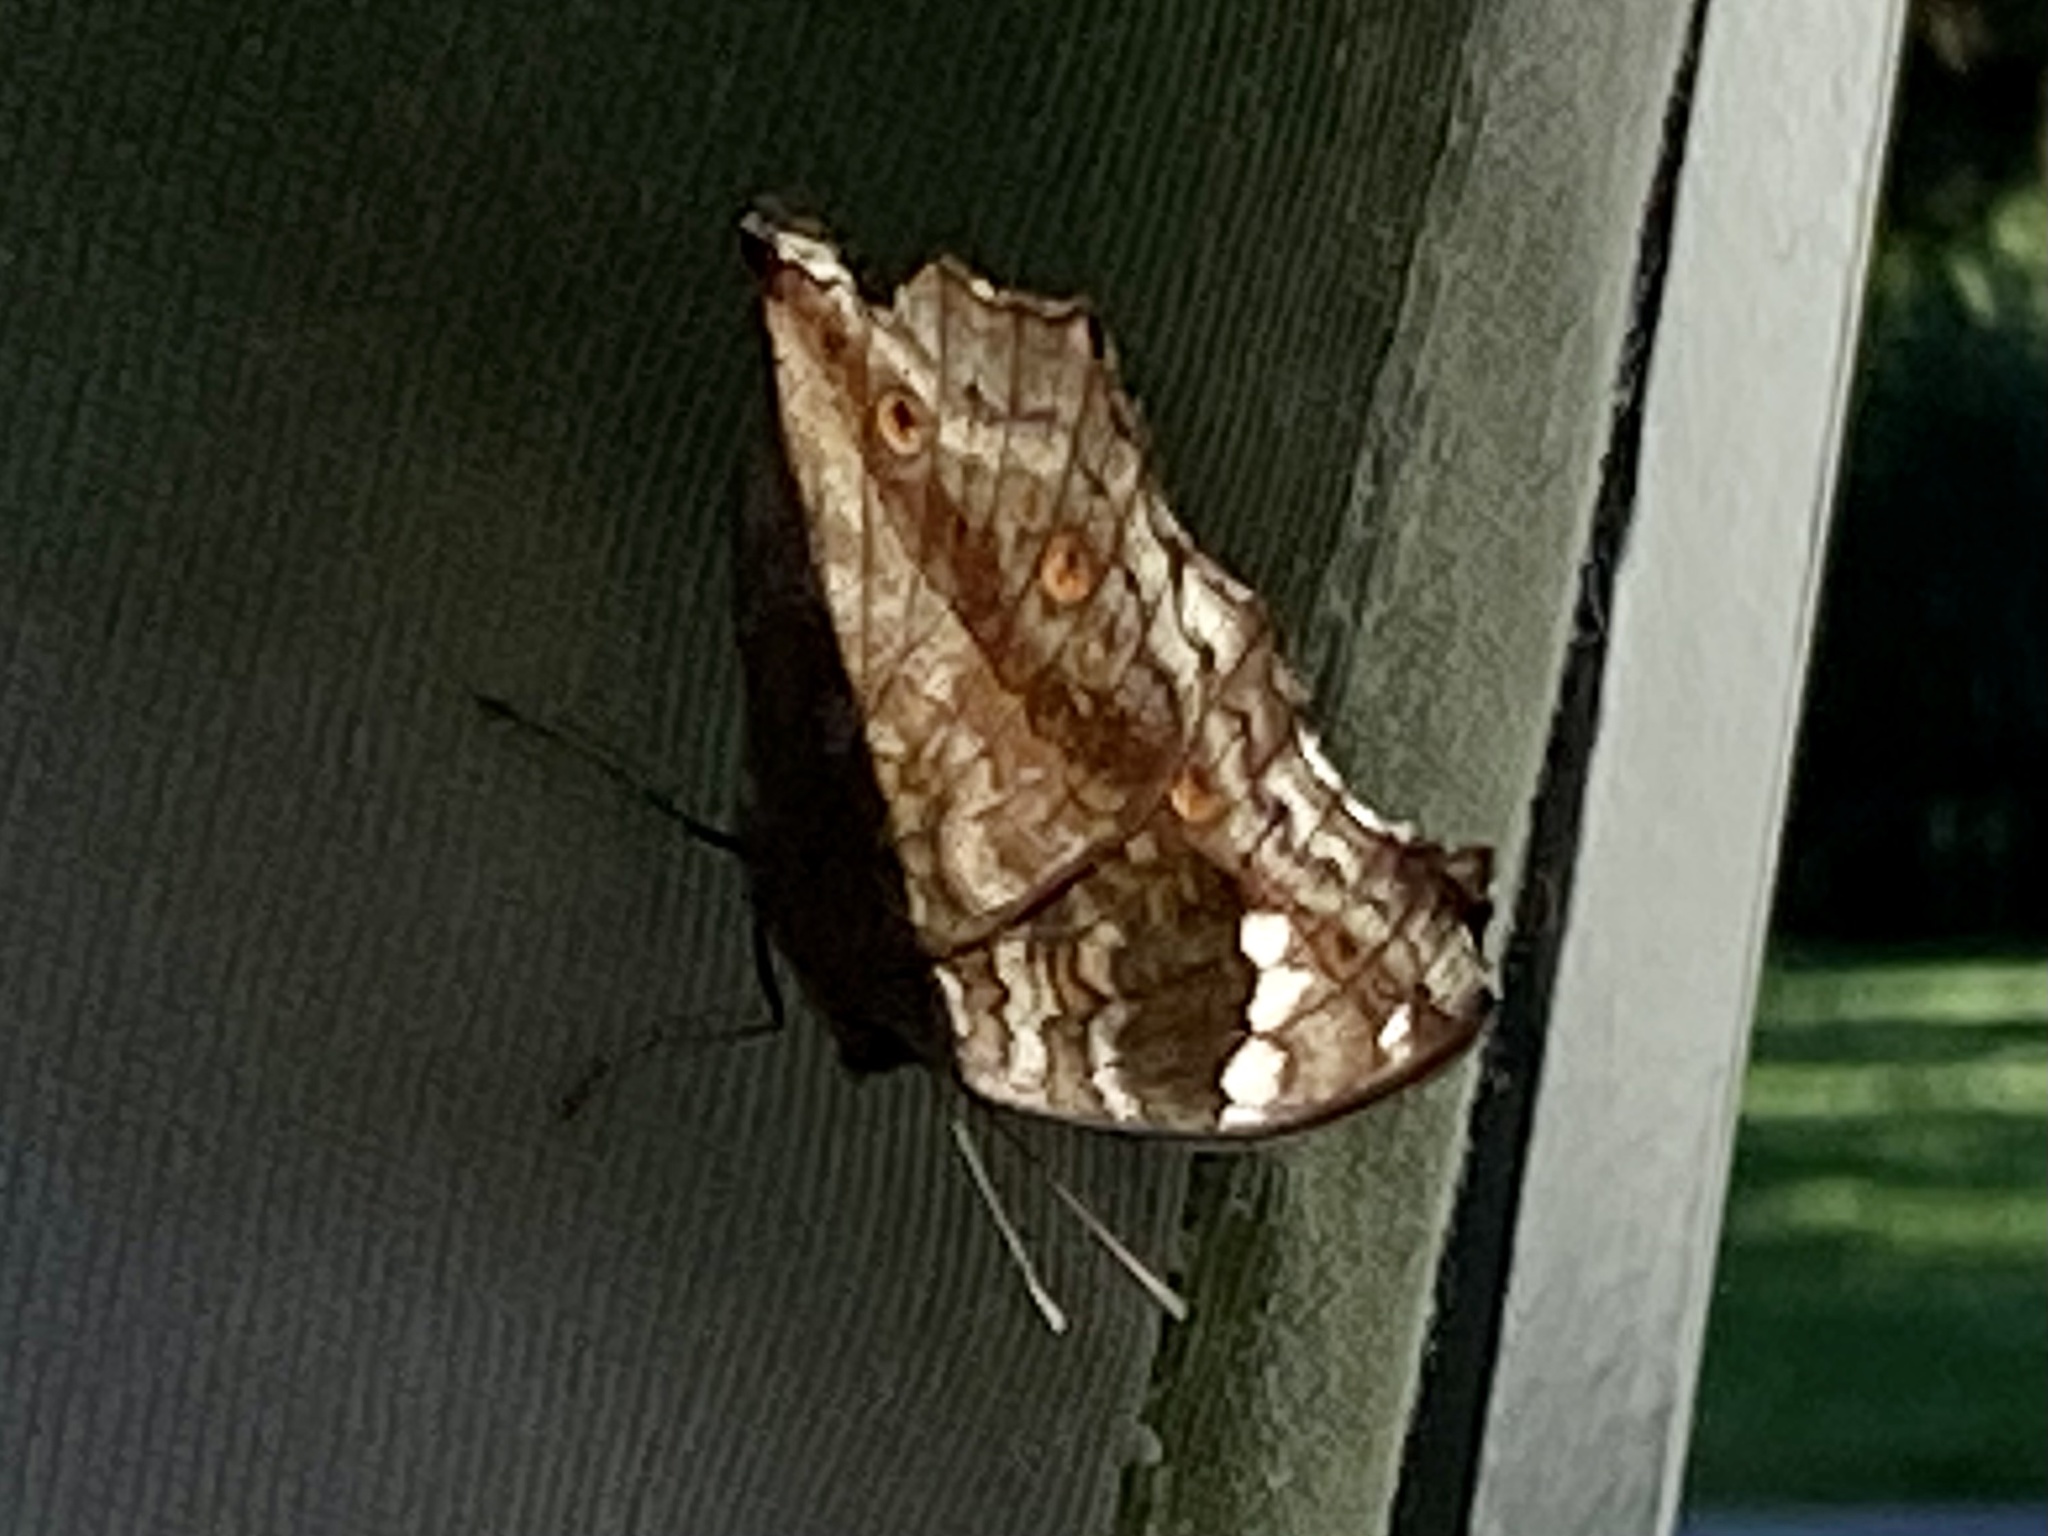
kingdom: Animalia
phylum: Arthropoda
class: Insecta
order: Lepidoptera
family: Nymphalidae
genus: Junonia
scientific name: Junonia natalica
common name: Brown pansy
